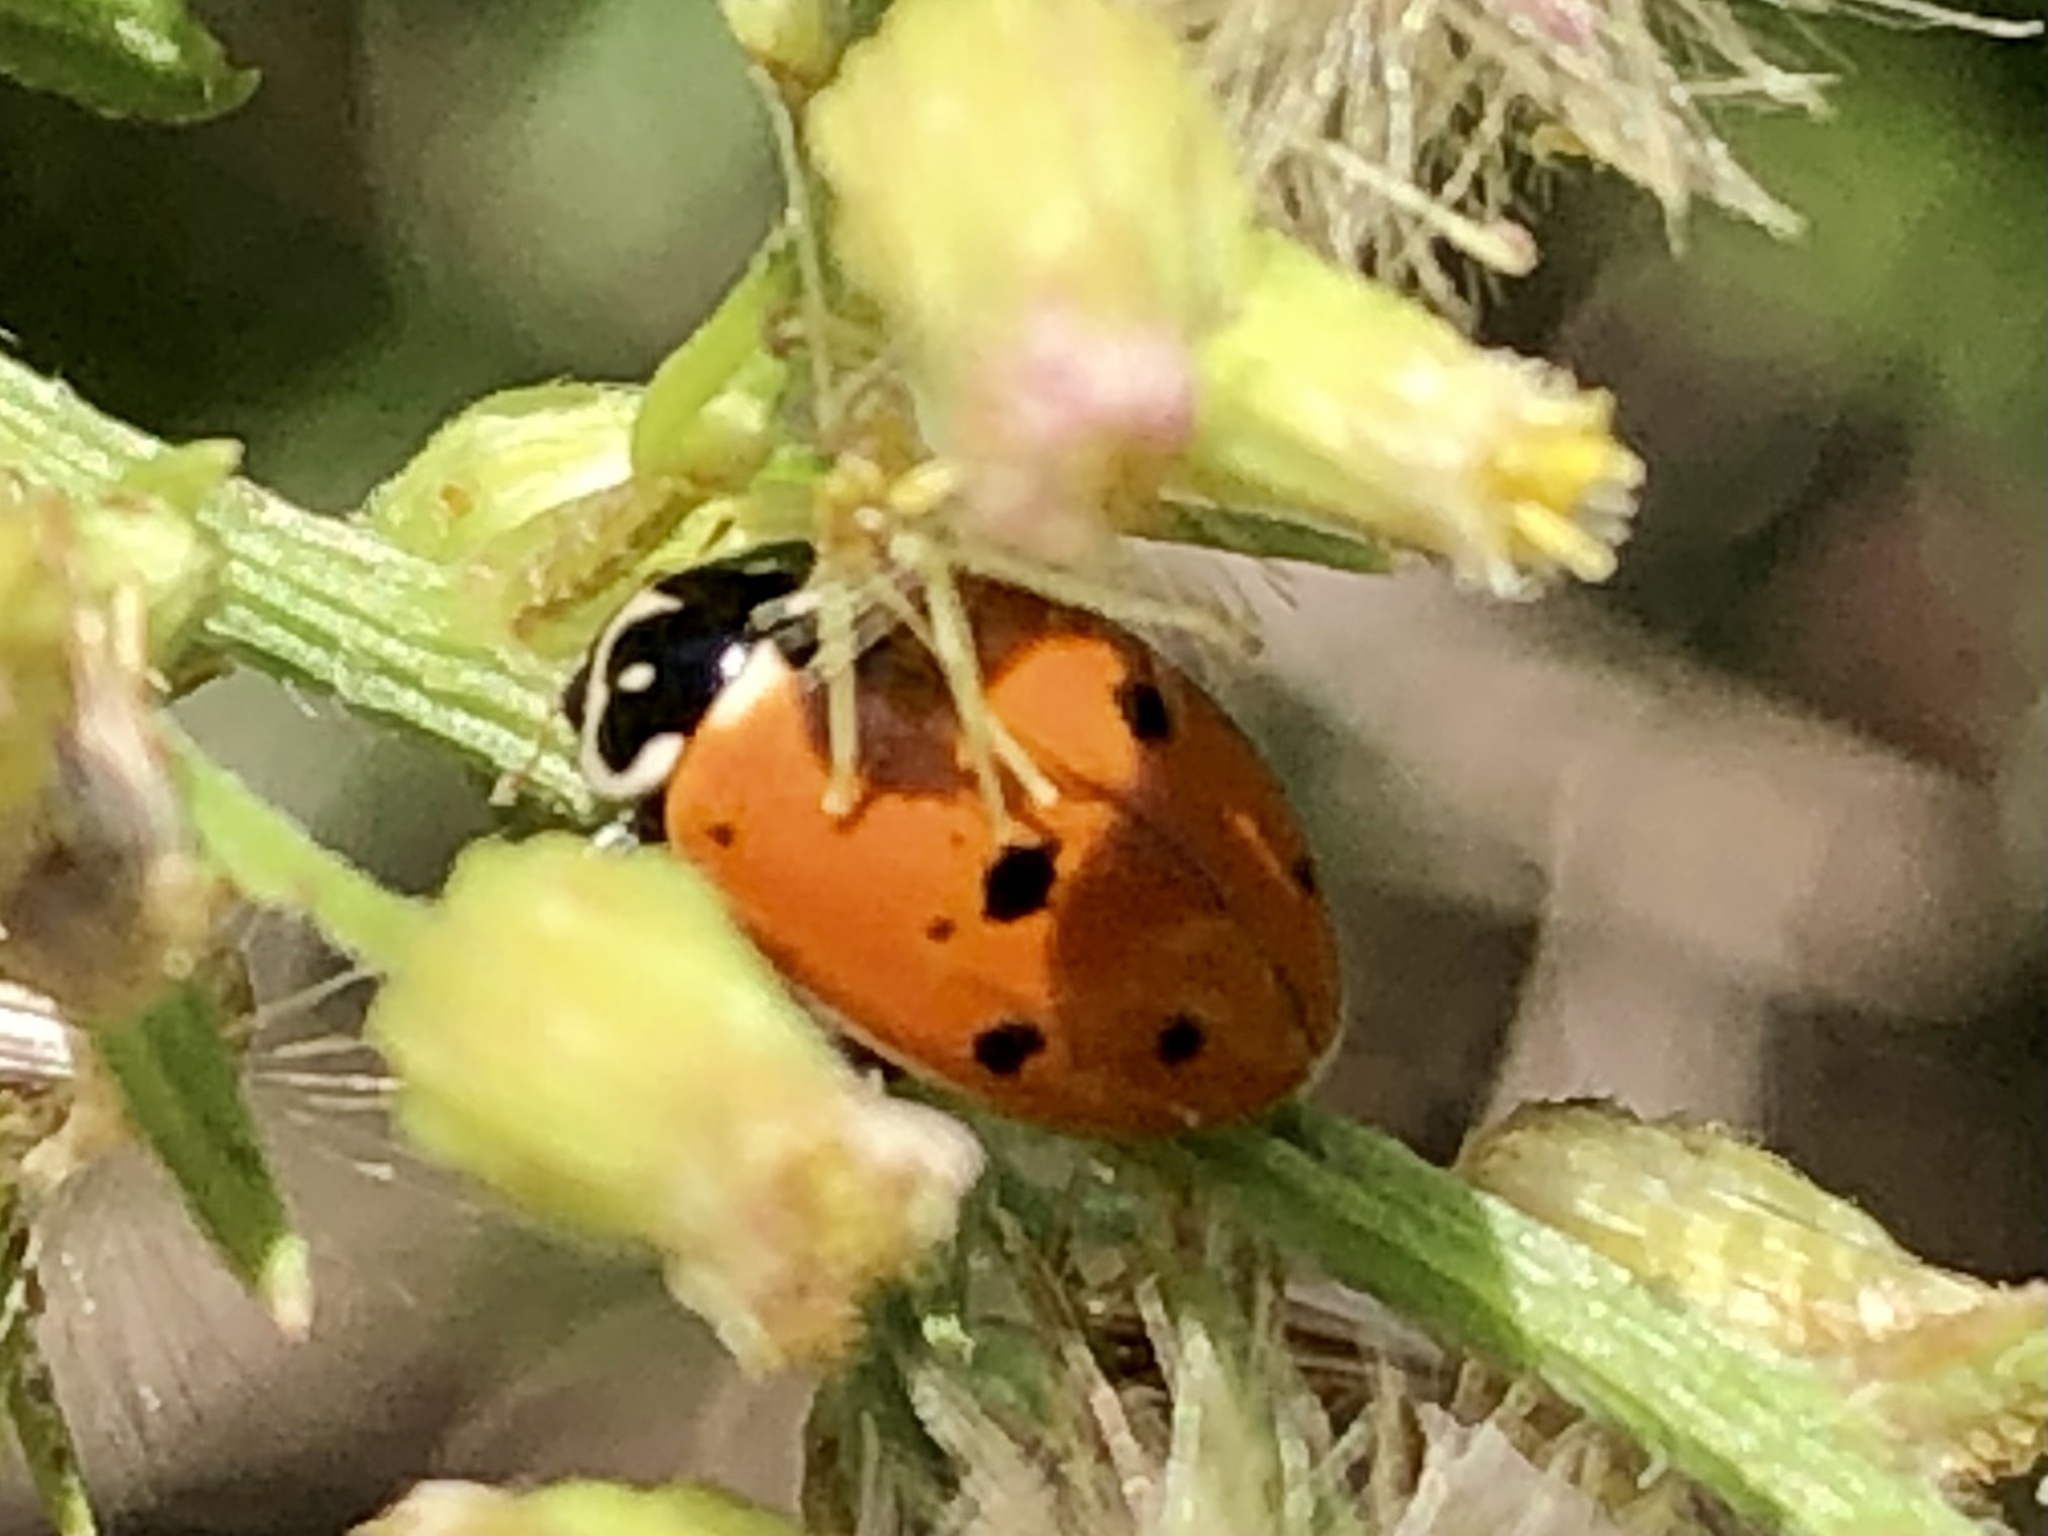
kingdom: Animalia
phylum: Arthropoda
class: Insecta
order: Coleoptera
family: Coccinellidae
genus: Hippodamia
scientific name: Hippodamia variegata
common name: Ladybird beetle
